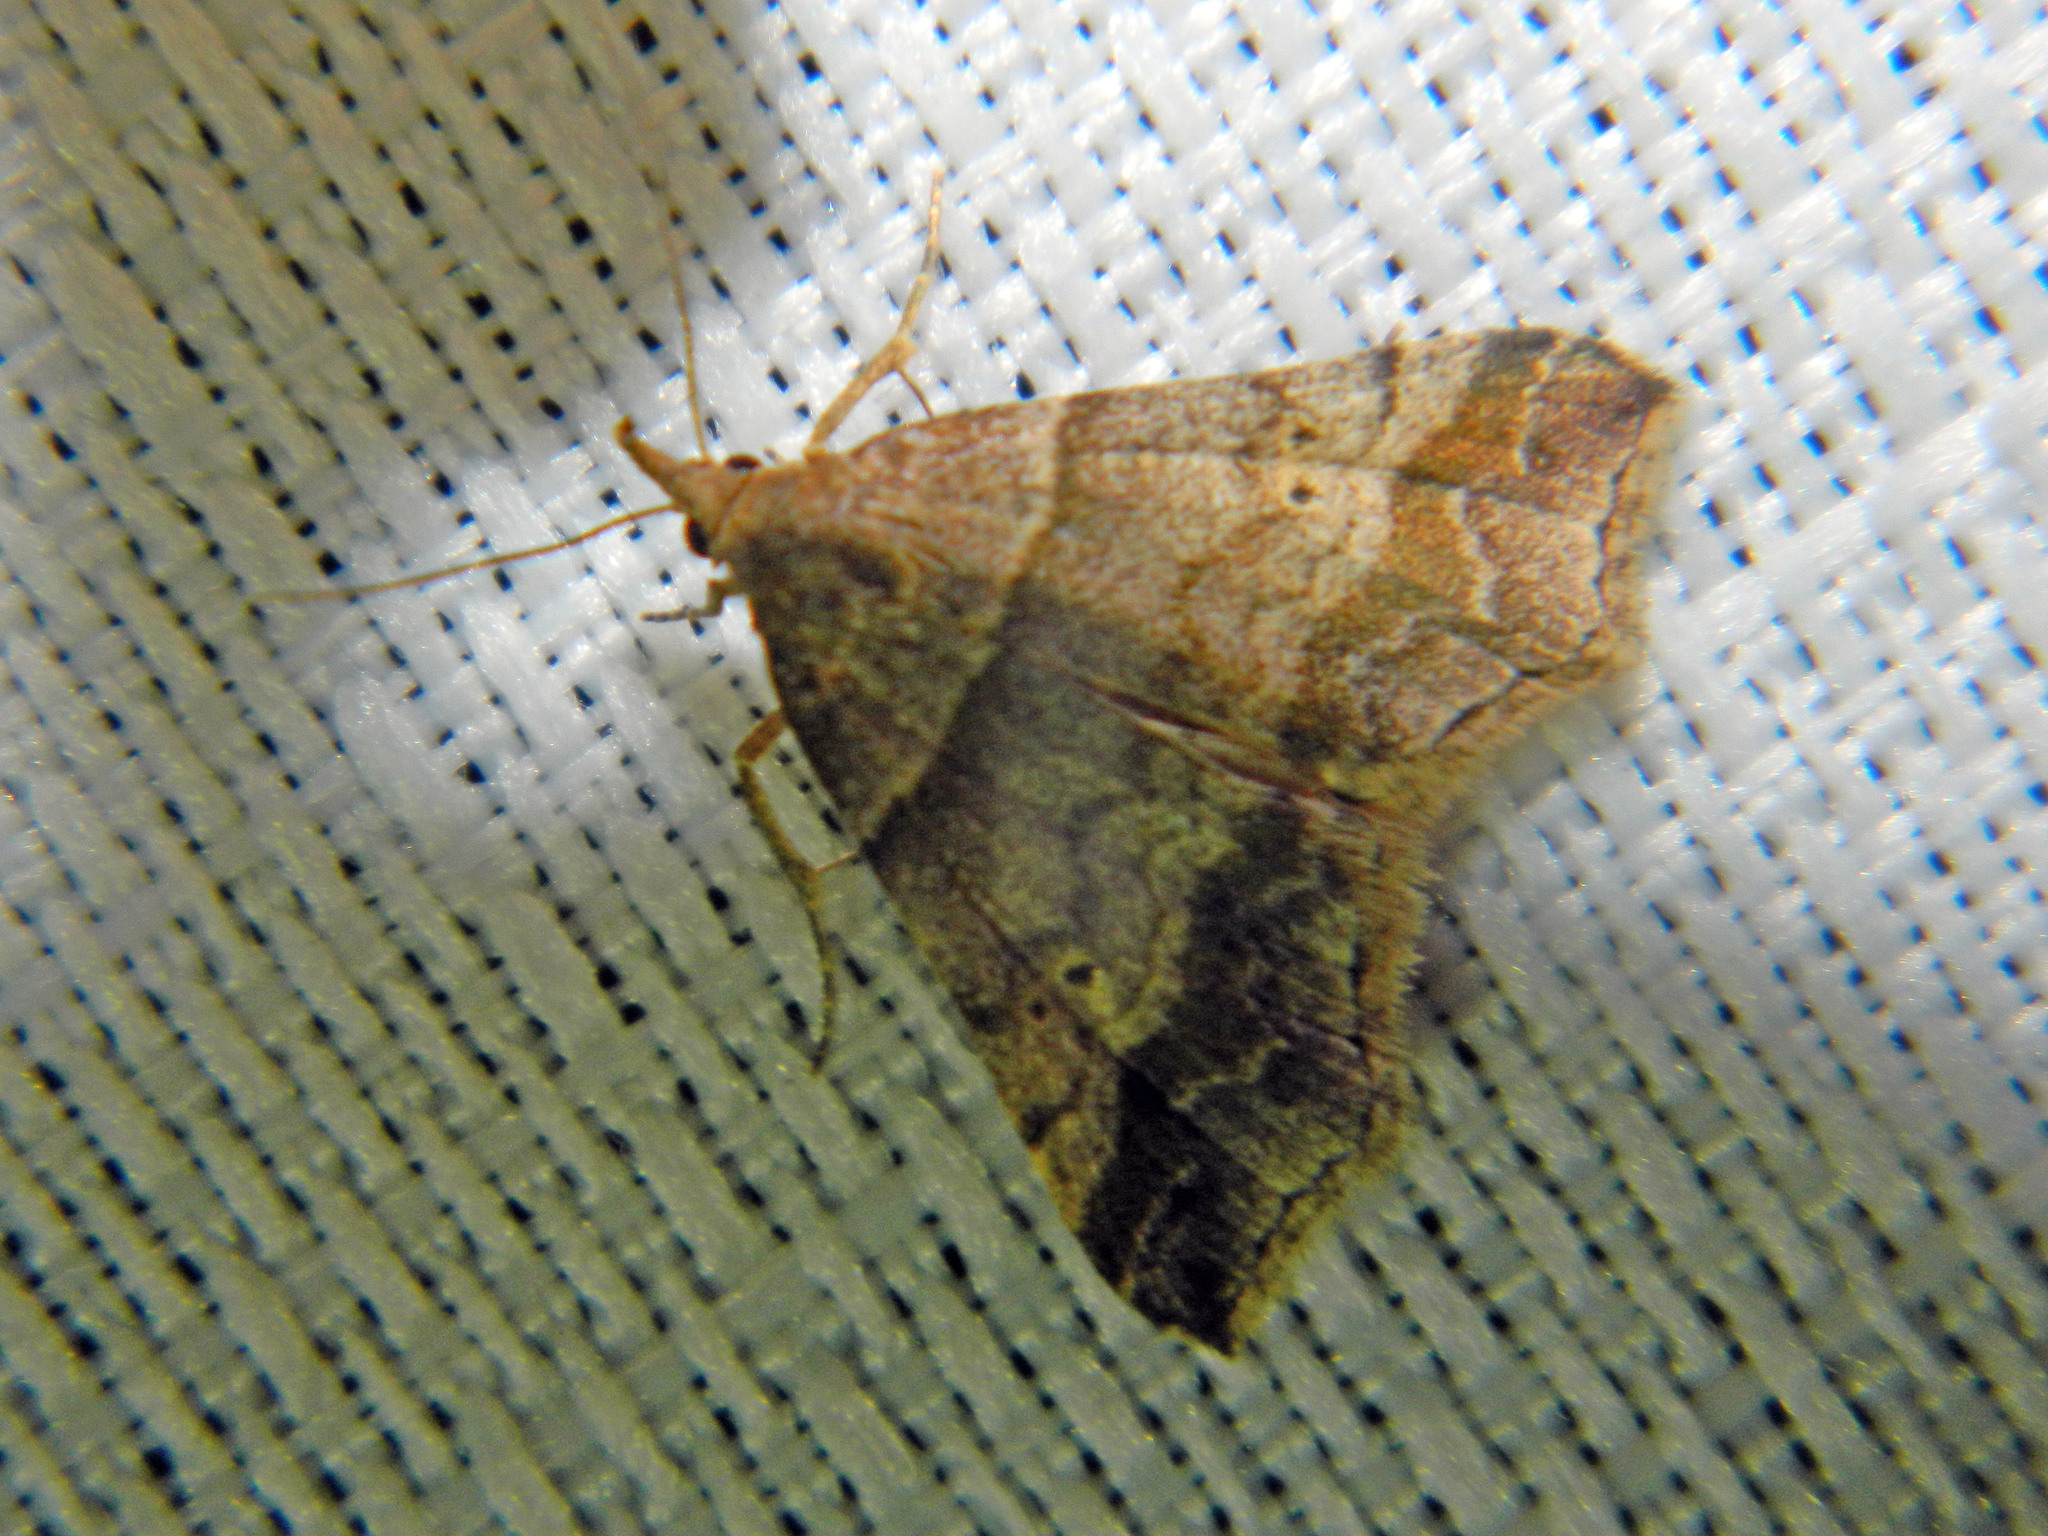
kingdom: Animalia
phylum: Arthropoda
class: Insecta
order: Lepidoptera
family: Erebidae
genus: Phaeolita
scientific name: Phaeolita pyramusalis
